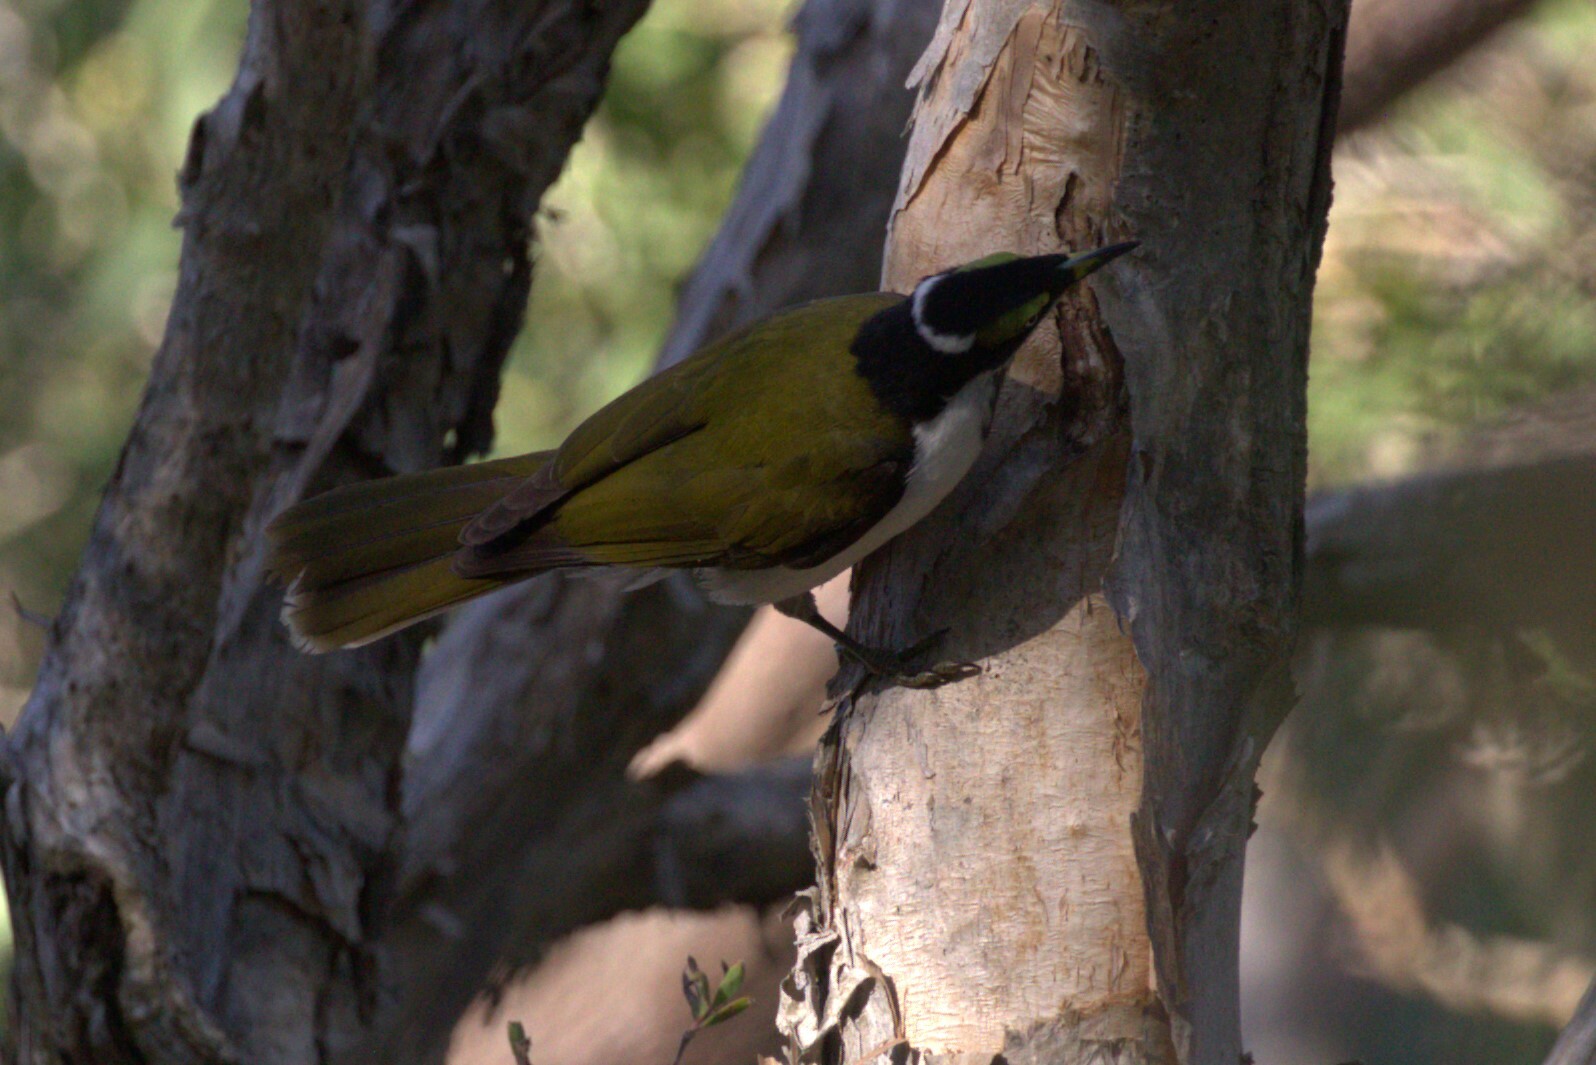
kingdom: Animalia
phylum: Chordata
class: Aves
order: Passeriformes
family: Meliphagidae
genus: Entomyzon
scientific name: Entomyzon cyanotis
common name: Blue-faced honeyeater
